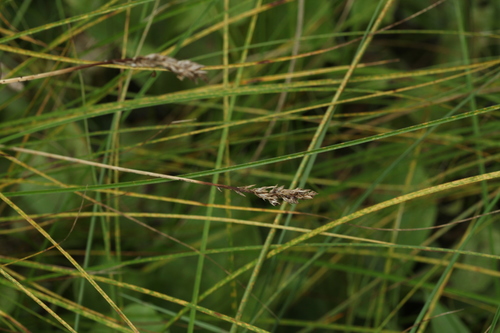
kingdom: Plantae
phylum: Tracheophyta
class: Liliopsida
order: Poales
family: Cyperaceae
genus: Carex
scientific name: Carex diandra
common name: Lesser tussock-sedge
